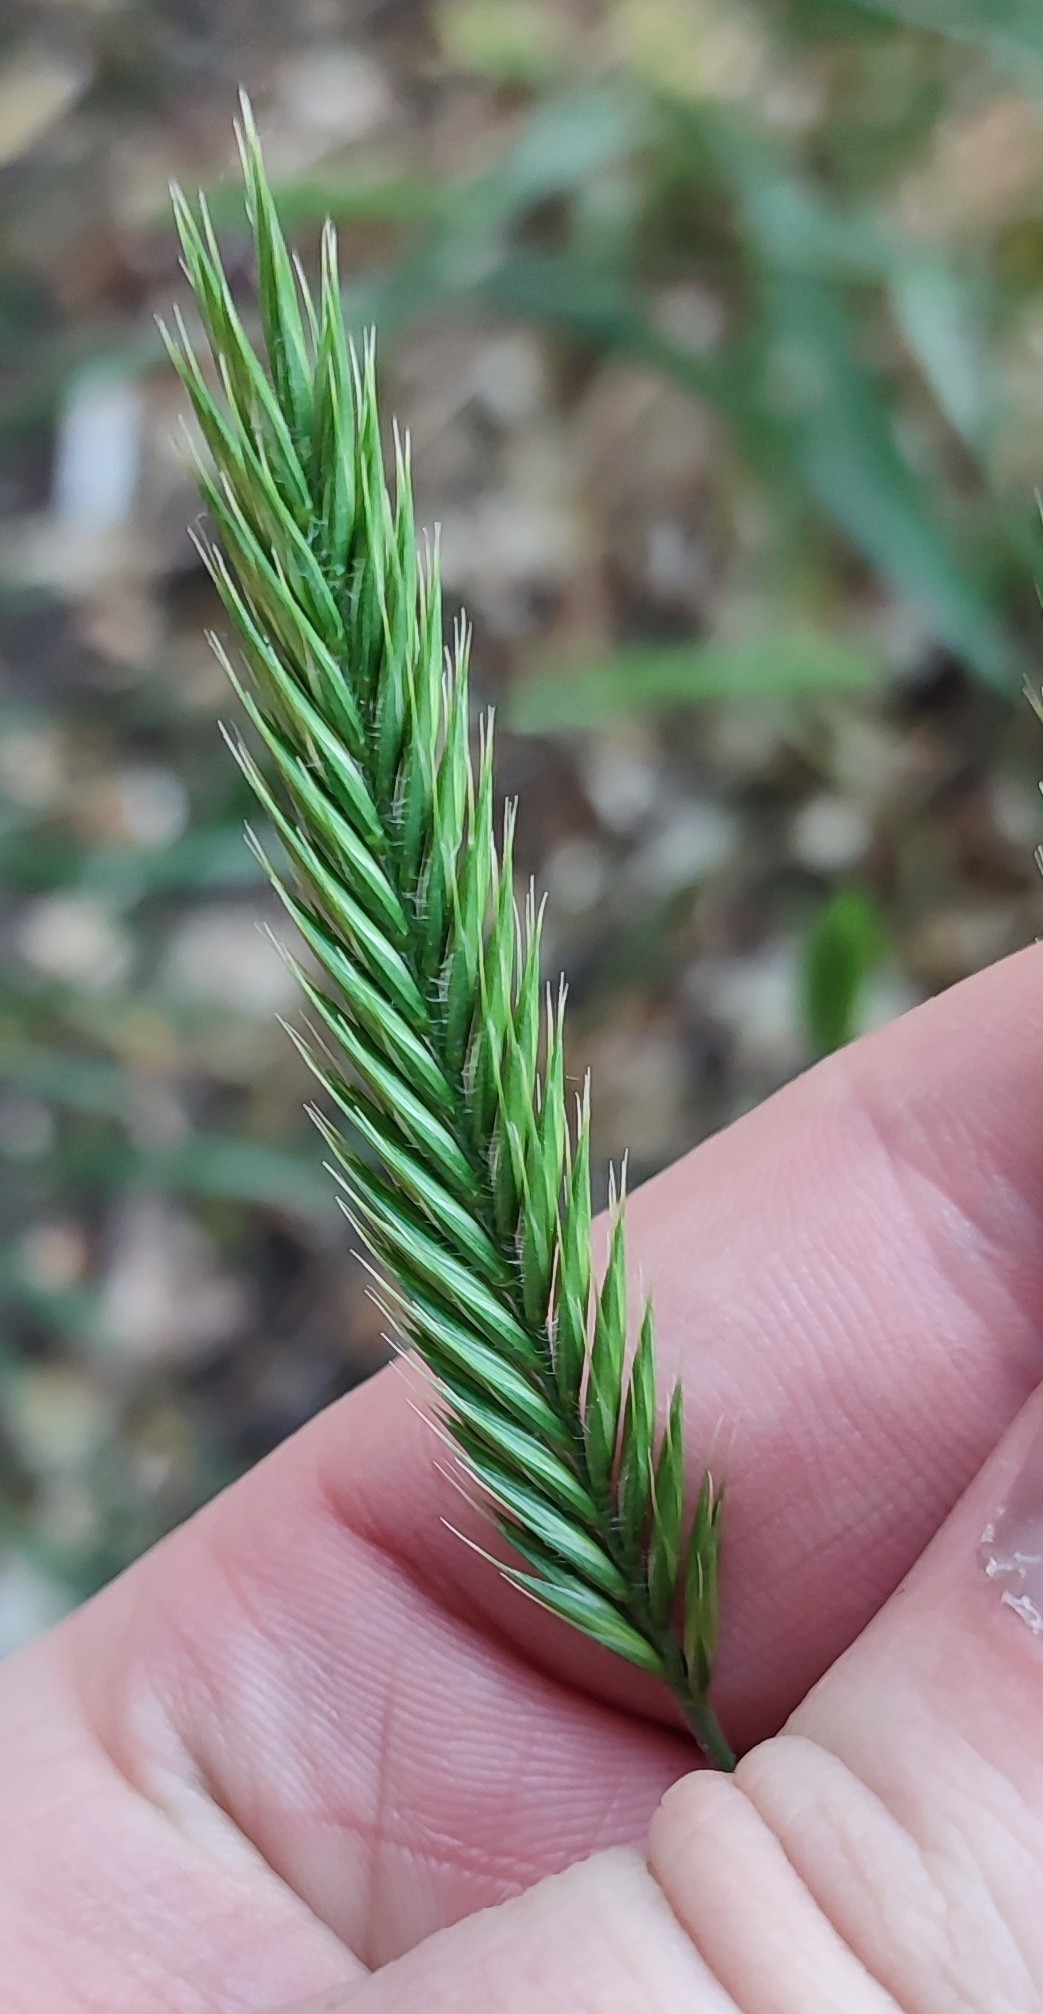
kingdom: Plantae
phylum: Tracheophyta
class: Liliopsida
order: Poales
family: Poaceae
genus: Agropyron
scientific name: Agropyron cristatum
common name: Crested wheatgrass
